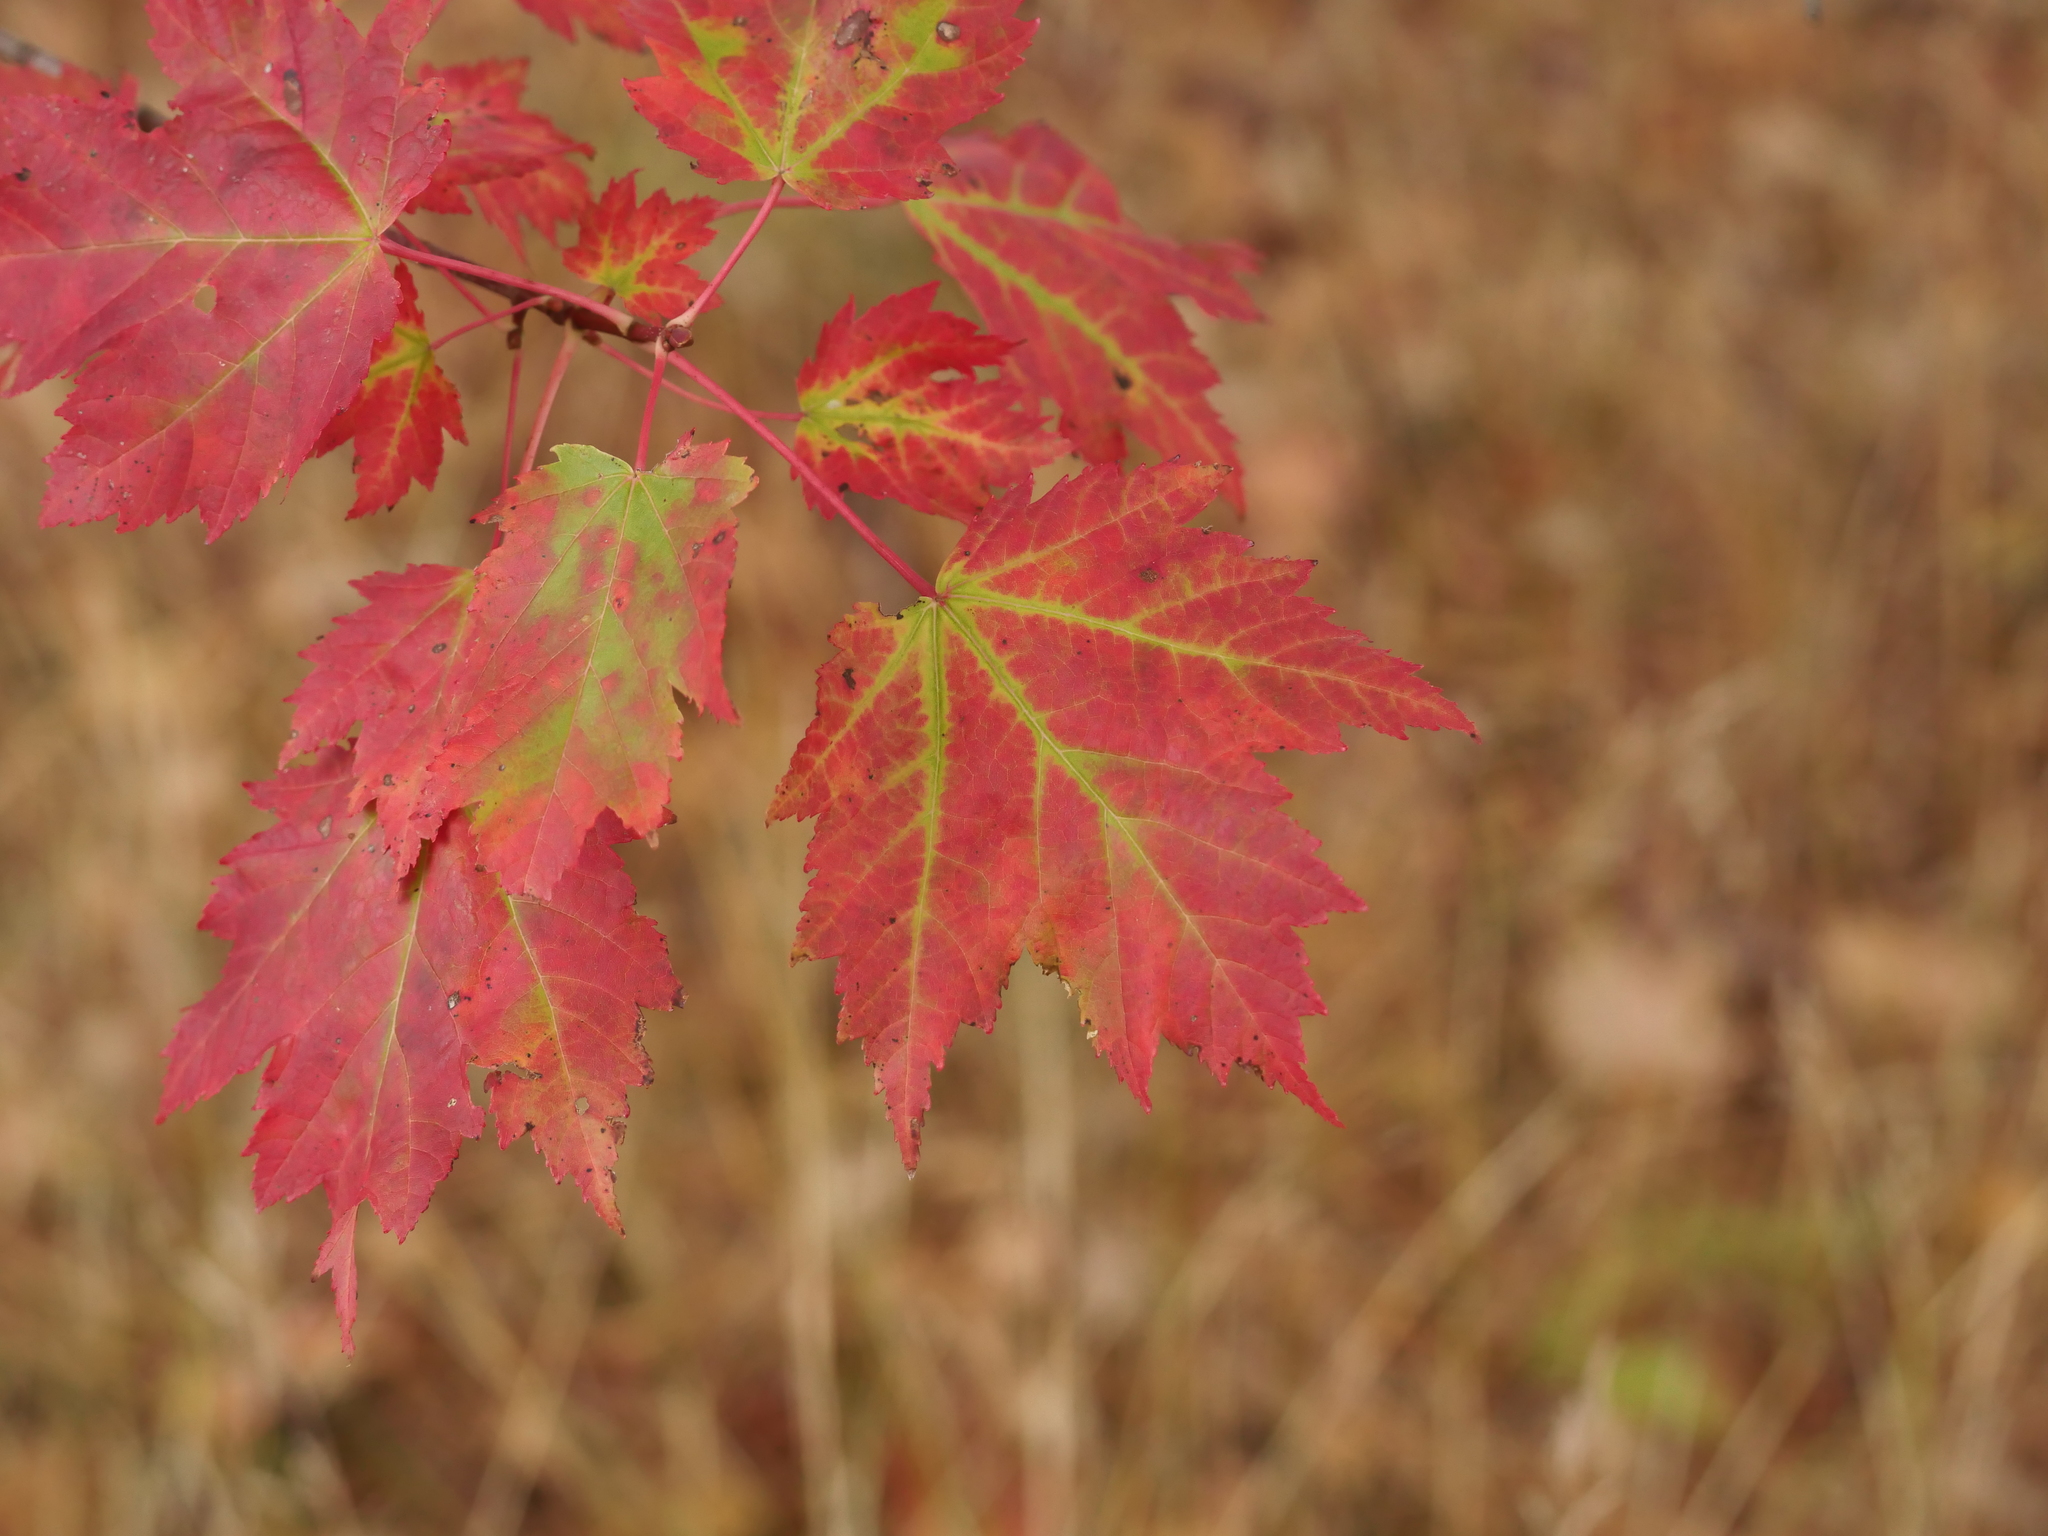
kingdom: Plantae
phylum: Tracheophyta
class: Magnoliopsida
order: Sapindales
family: Sapindaceae
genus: Acer
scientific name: Acer rubrum
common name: Red maple
